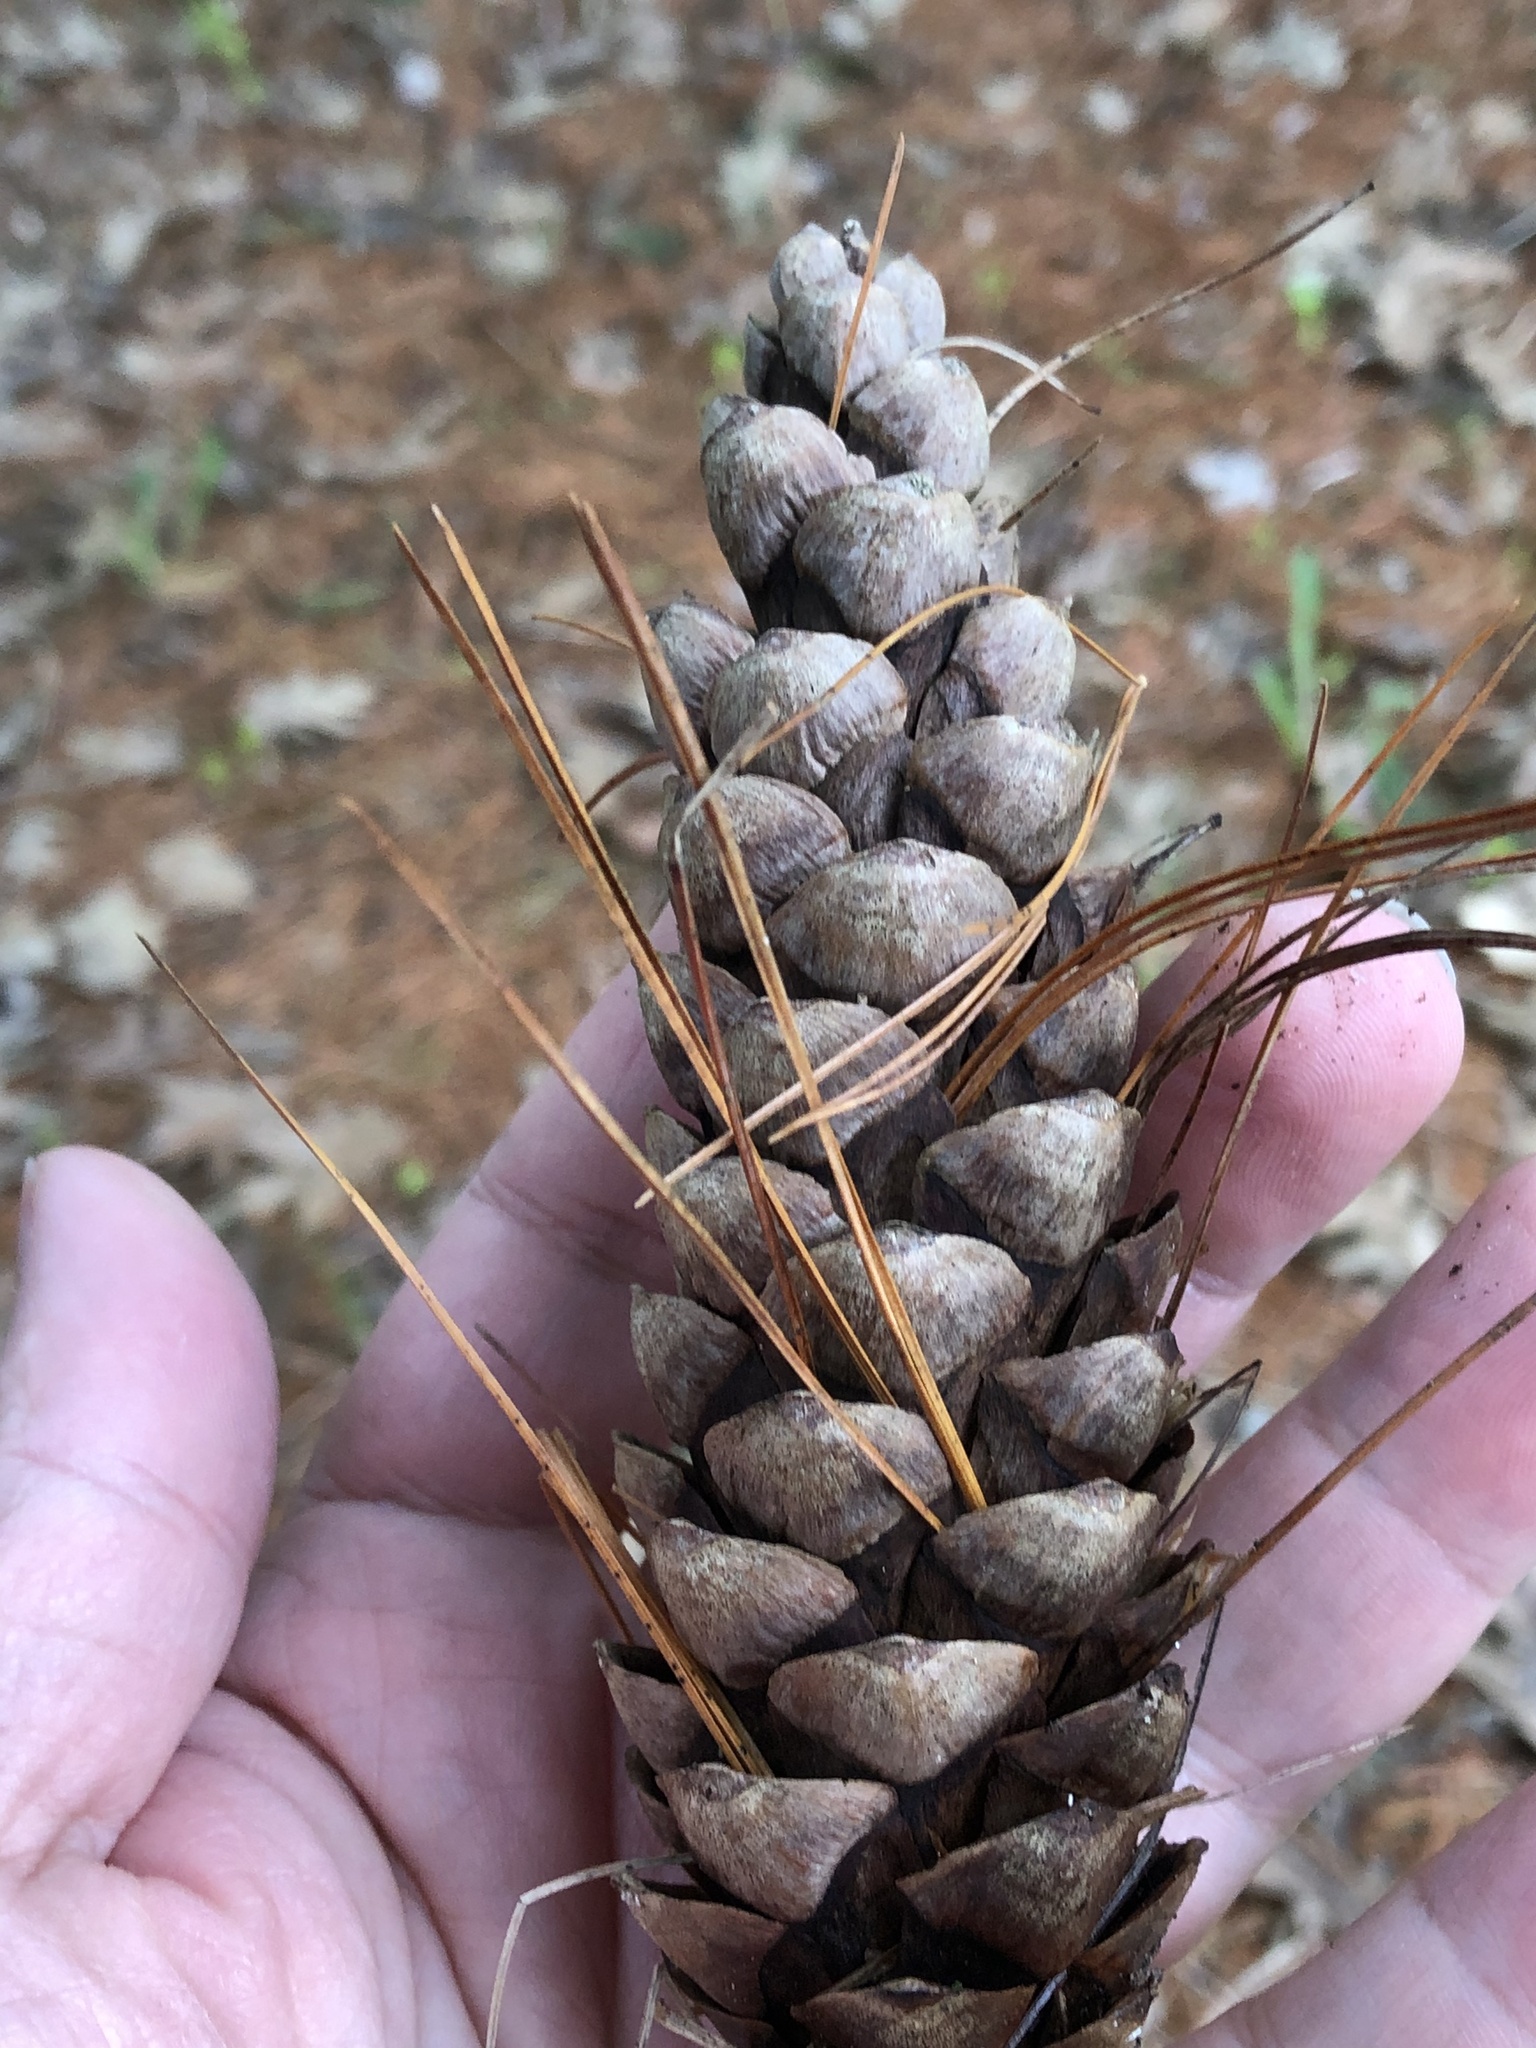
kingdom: Plantae
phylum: Tracheophyta
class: Pinopsida
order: Pinales
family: Pinaceae
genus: Pinus
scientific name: Pinus strobus
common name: Weymouth pine
